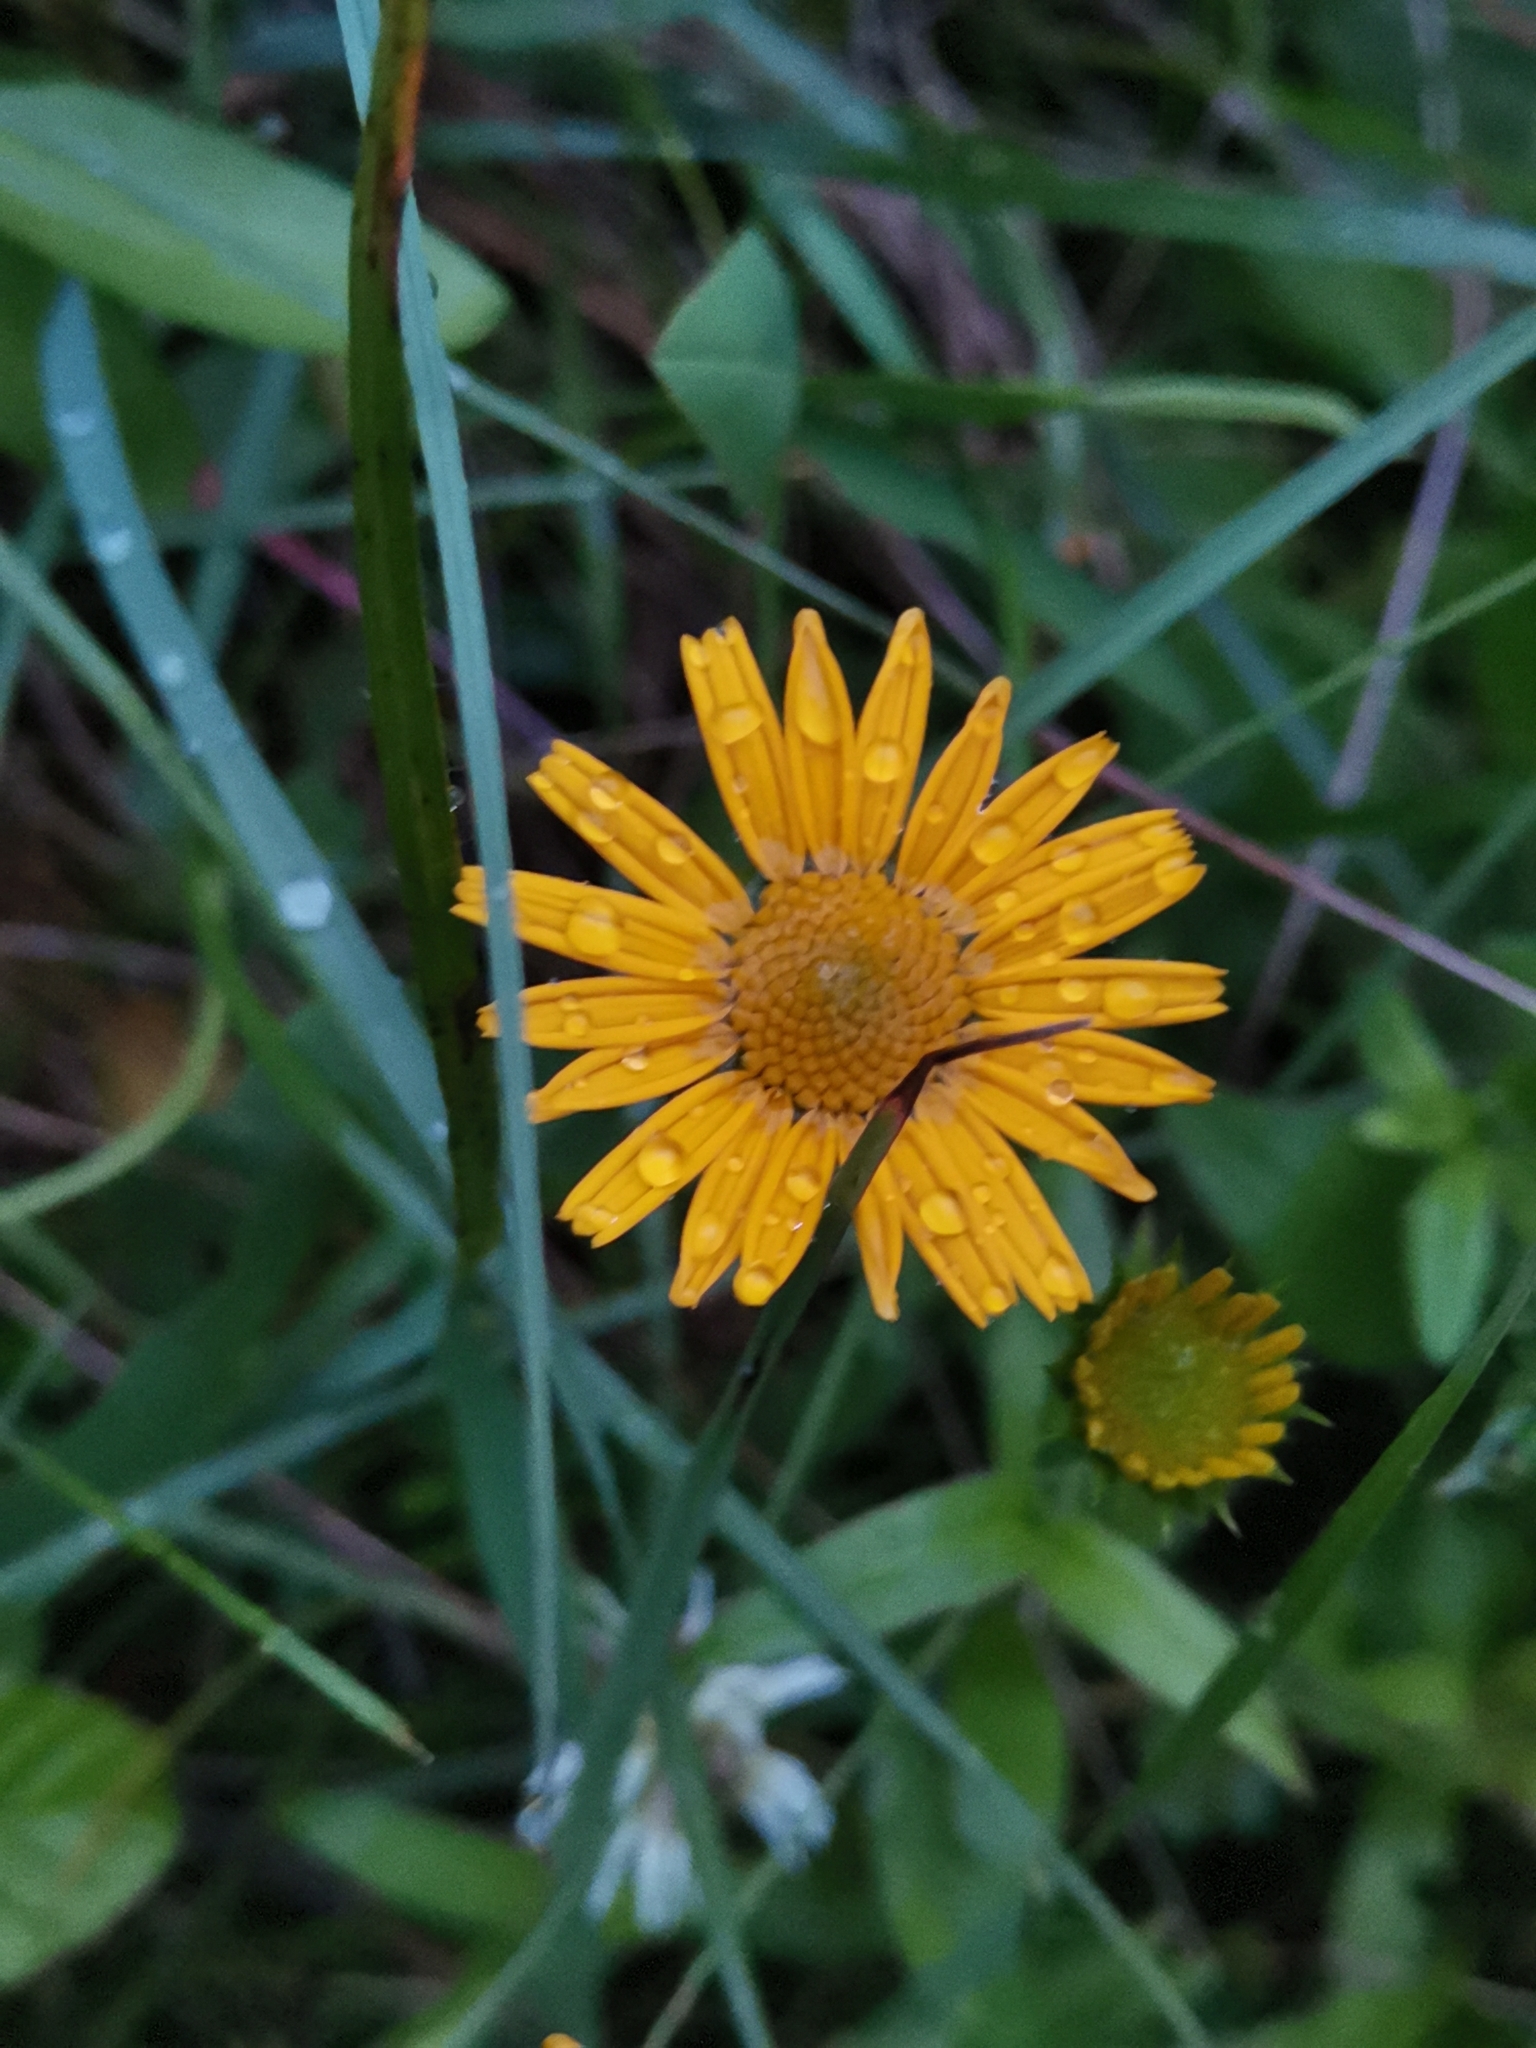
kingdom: Plantae
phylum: Tracheophyta
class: Magnoliopsida
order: Asterales
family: Asteraceae
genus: Buphthalmum
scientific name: Buphthalmum salicifolium
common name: Willow-leaved yellow-oxeye
